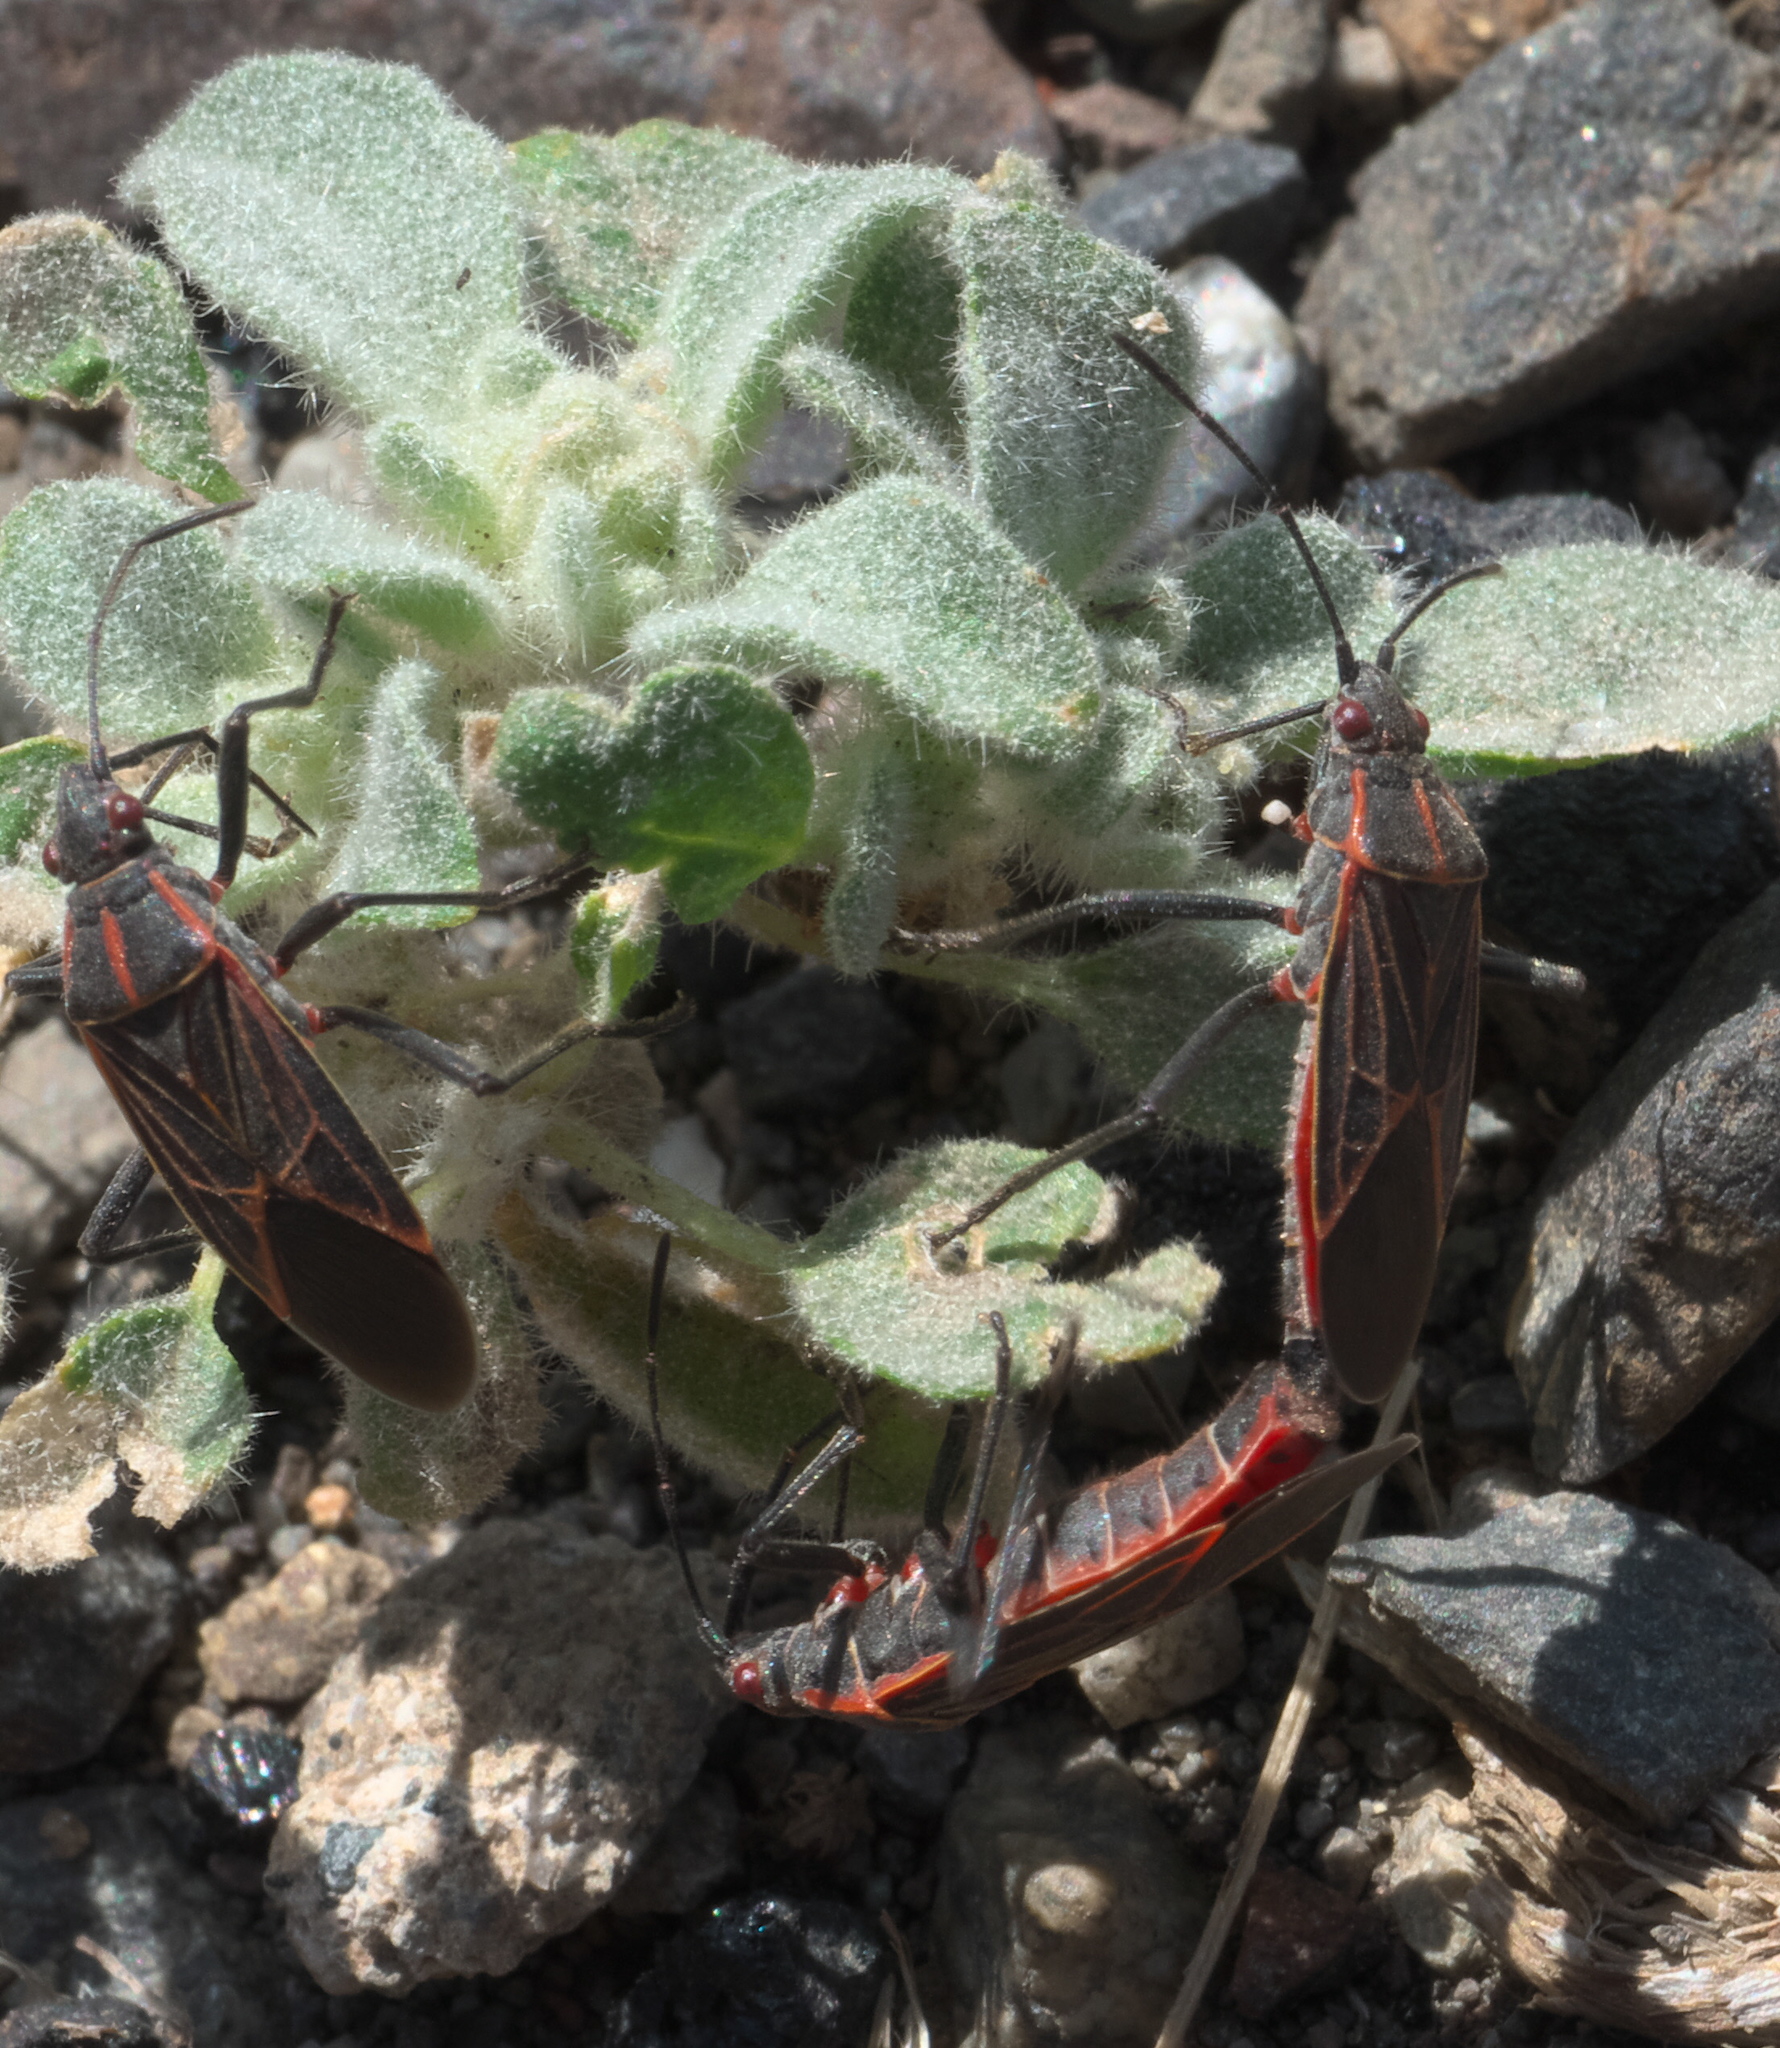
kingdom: Animalia
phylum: Arthropoda
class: Insecta
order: Hemiptera
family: Rhopalidae
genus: Boisea
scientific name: Boisea rubrolineata
